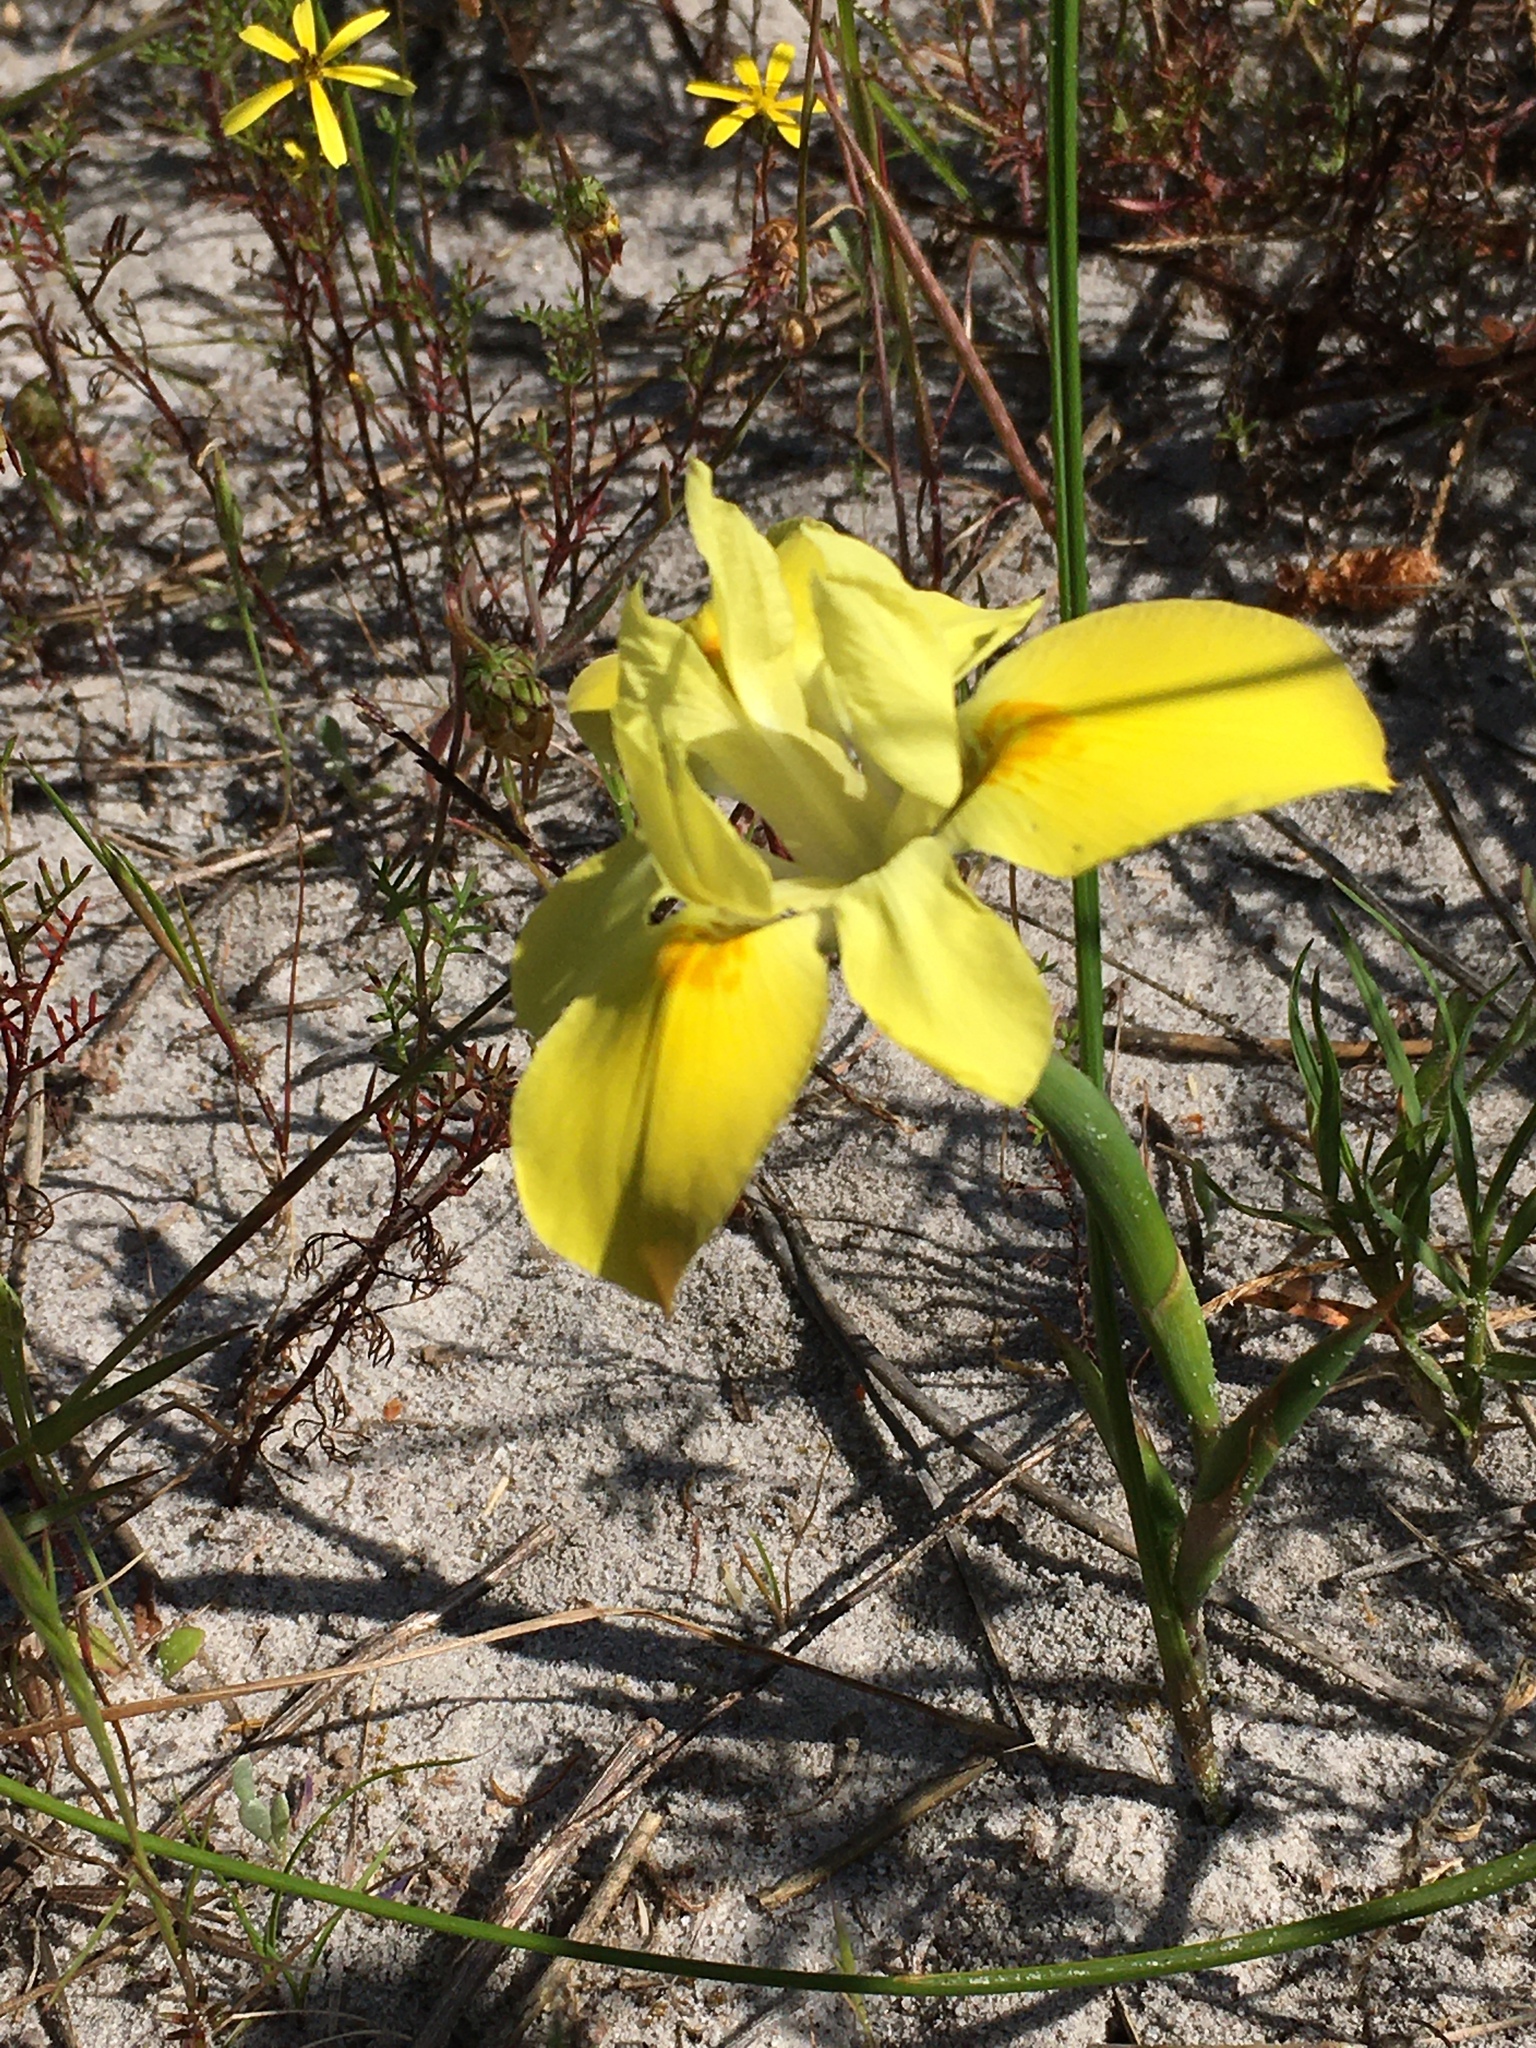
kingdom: Plantae
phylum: Tracheophyta
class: Liliopsida
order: Asparagales
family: Iridaceae
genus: Moraea
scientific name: Moraea fugax
